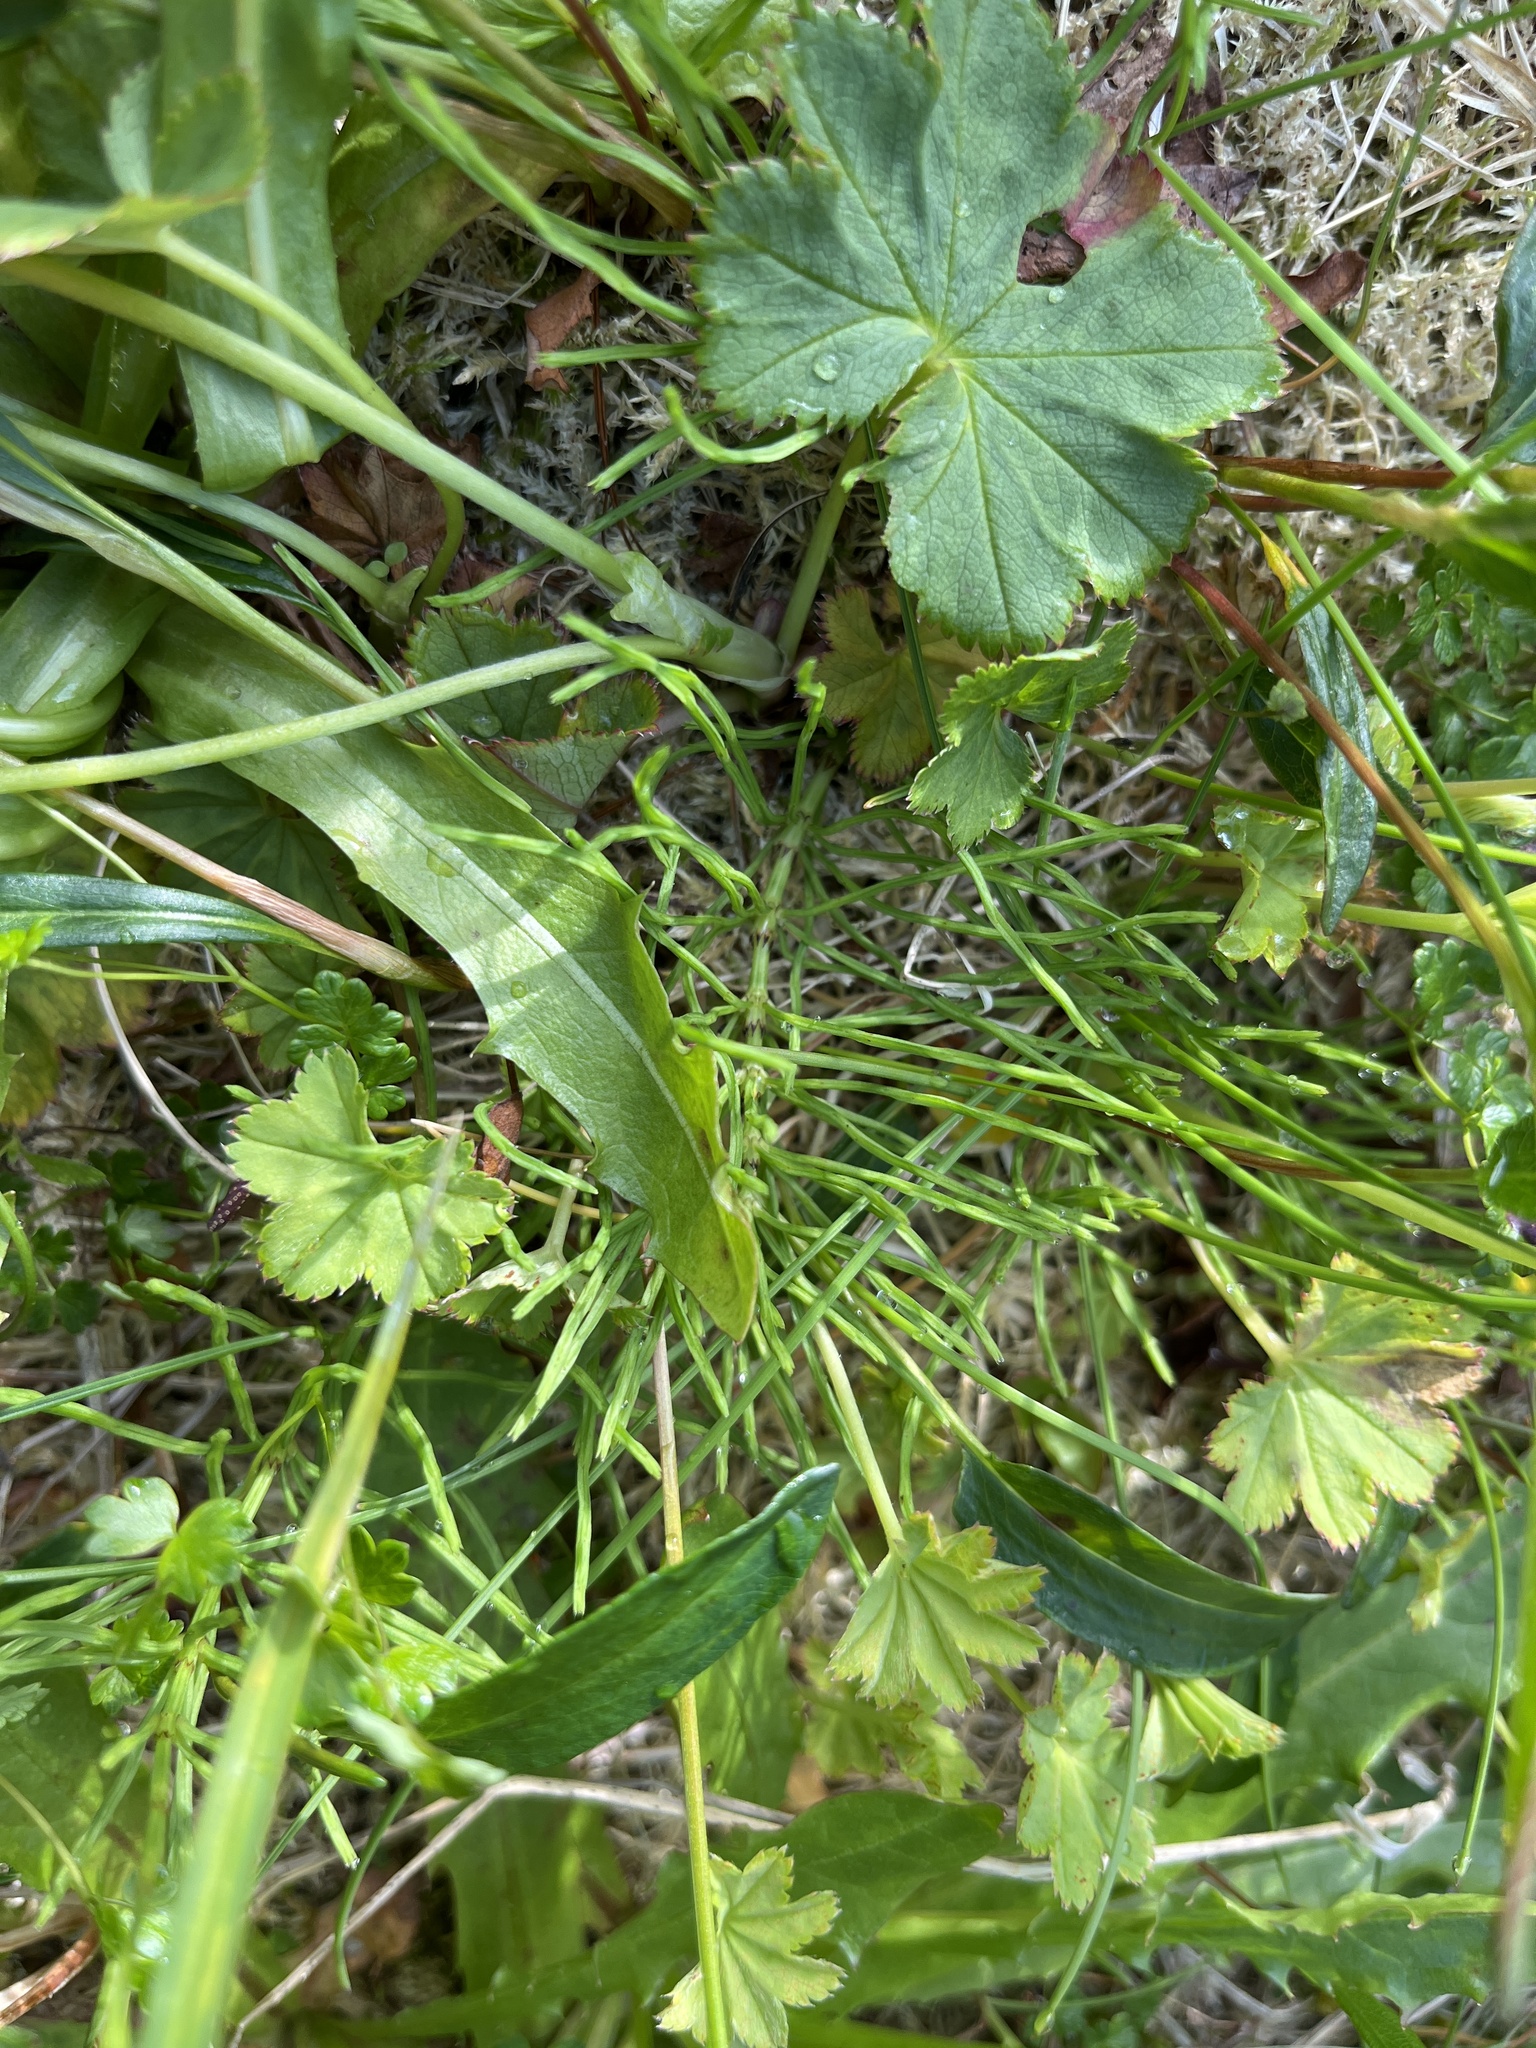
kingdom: Plantae
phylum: Tracheophyta
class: Polypodiopsida
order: Equisetales
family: Equisetaceae
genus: Equisetum
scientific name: Equisetum arvense
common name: Field horsetail
